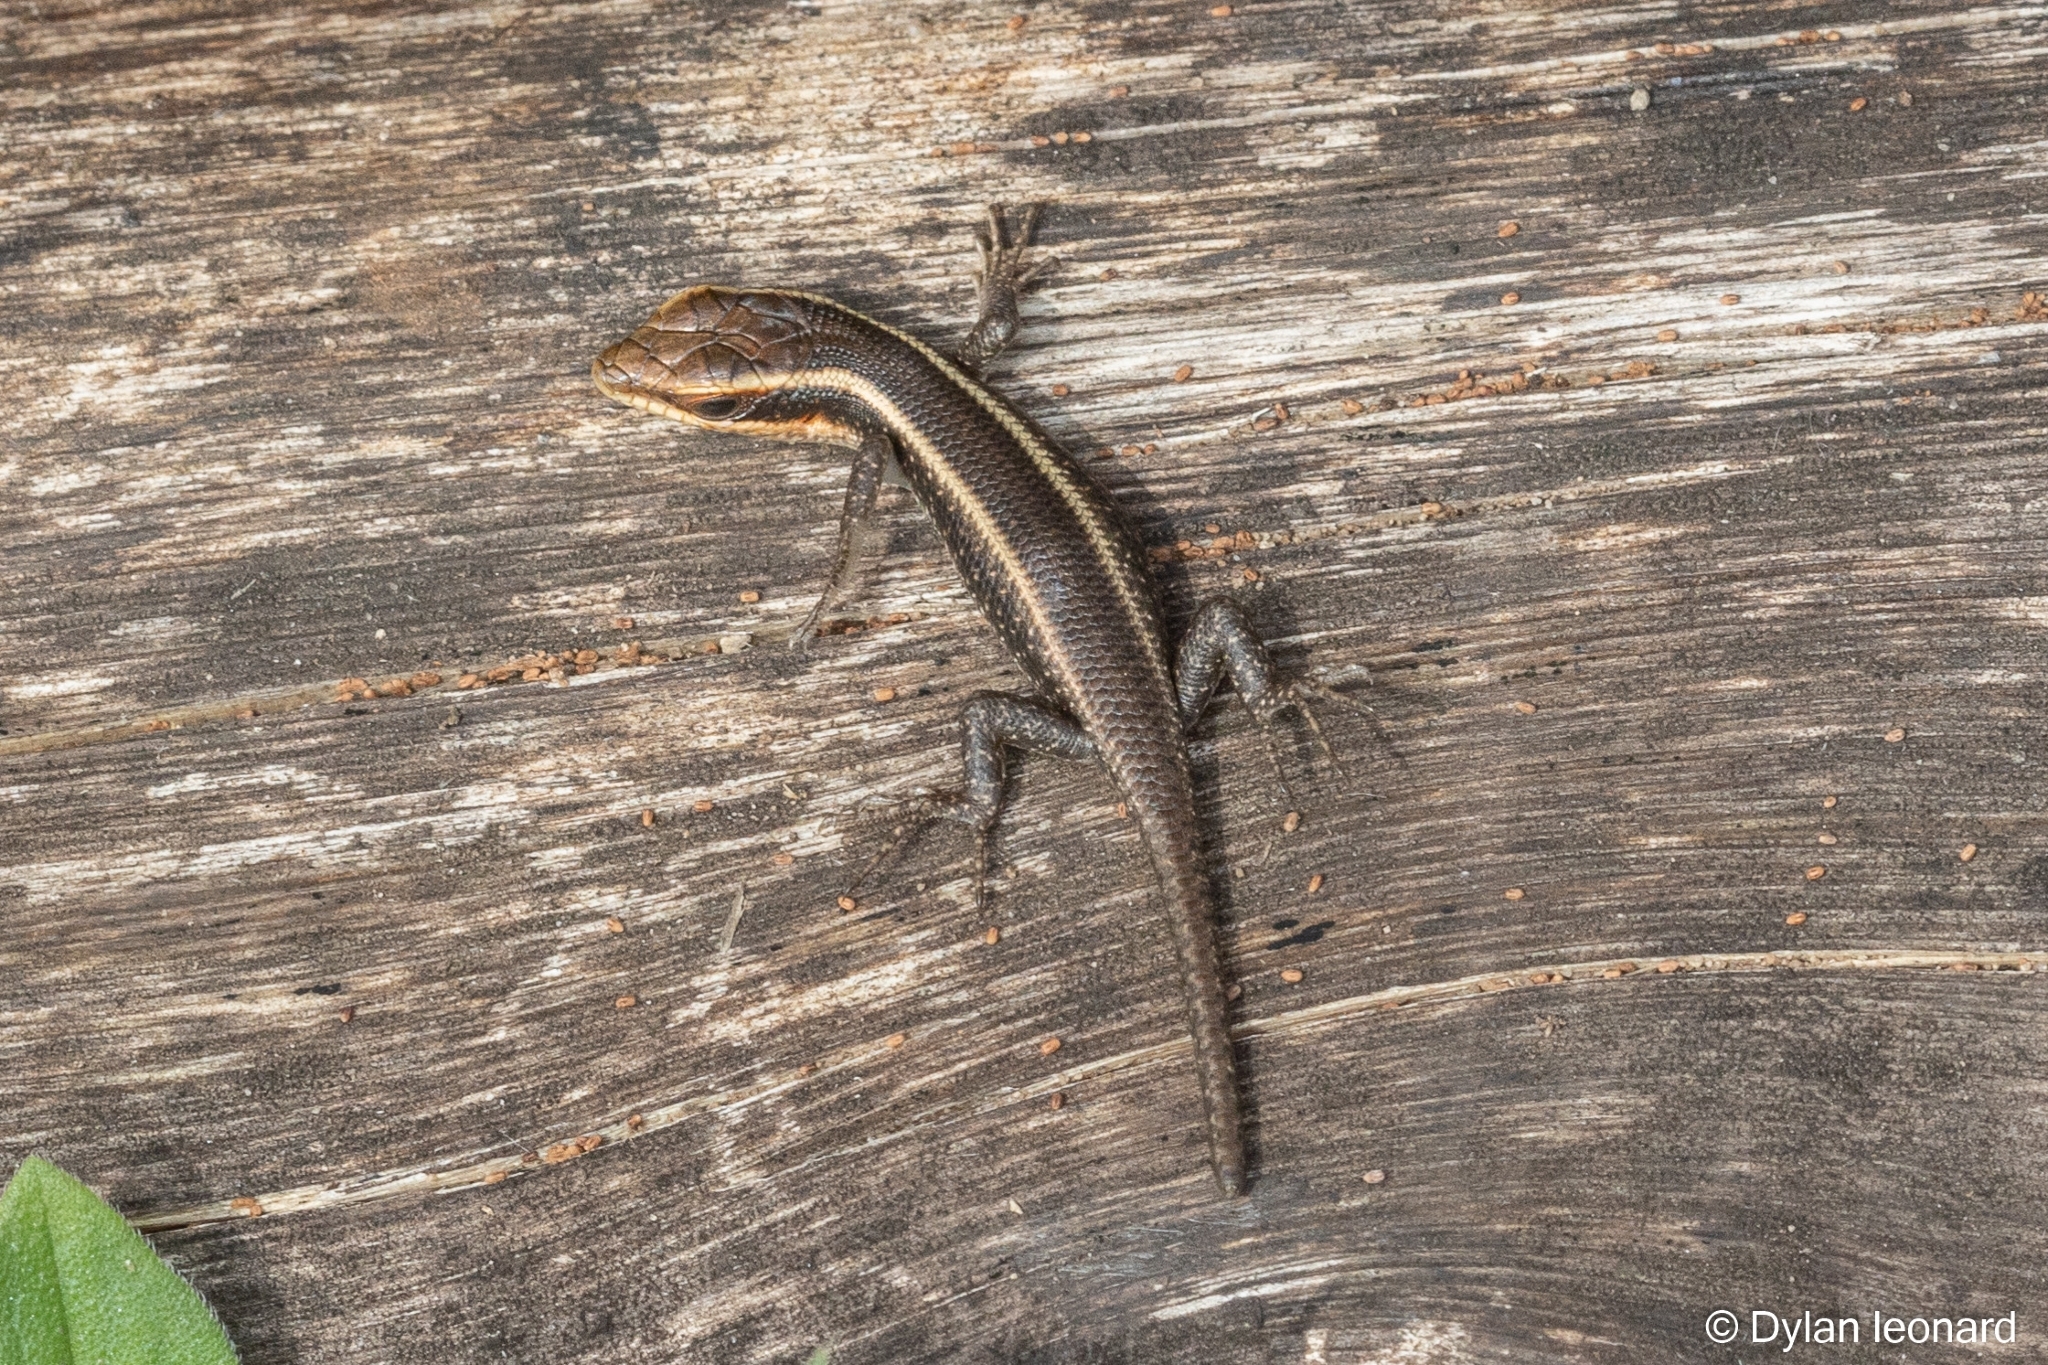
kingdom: Animalia
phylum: Chordata
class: Squamata
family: Scincidae
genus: Trachylepis
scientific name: Trachylepis striata
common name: African striped mabuya
